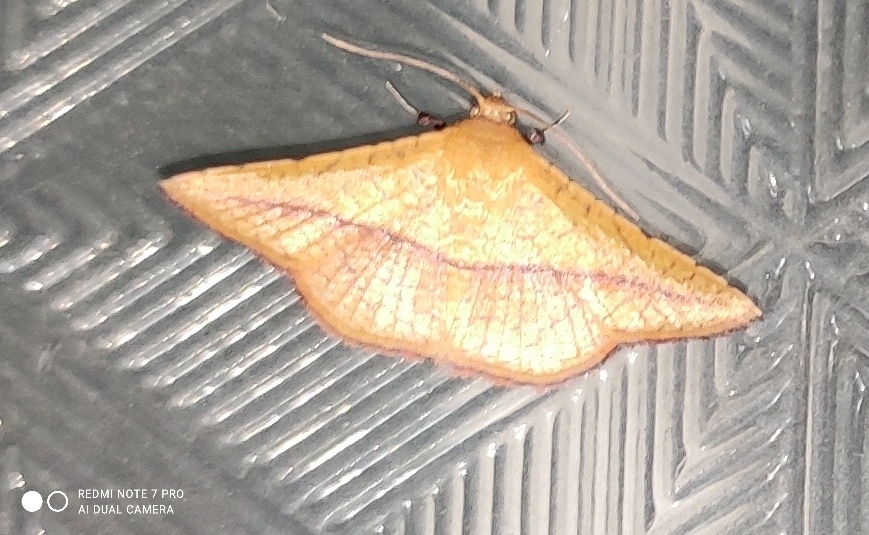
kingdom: Animalia
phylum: Arthropoda
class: Insecta
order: Lepidoptera
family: Thyrididae
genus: Striglina
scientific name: Striglina scitaria
